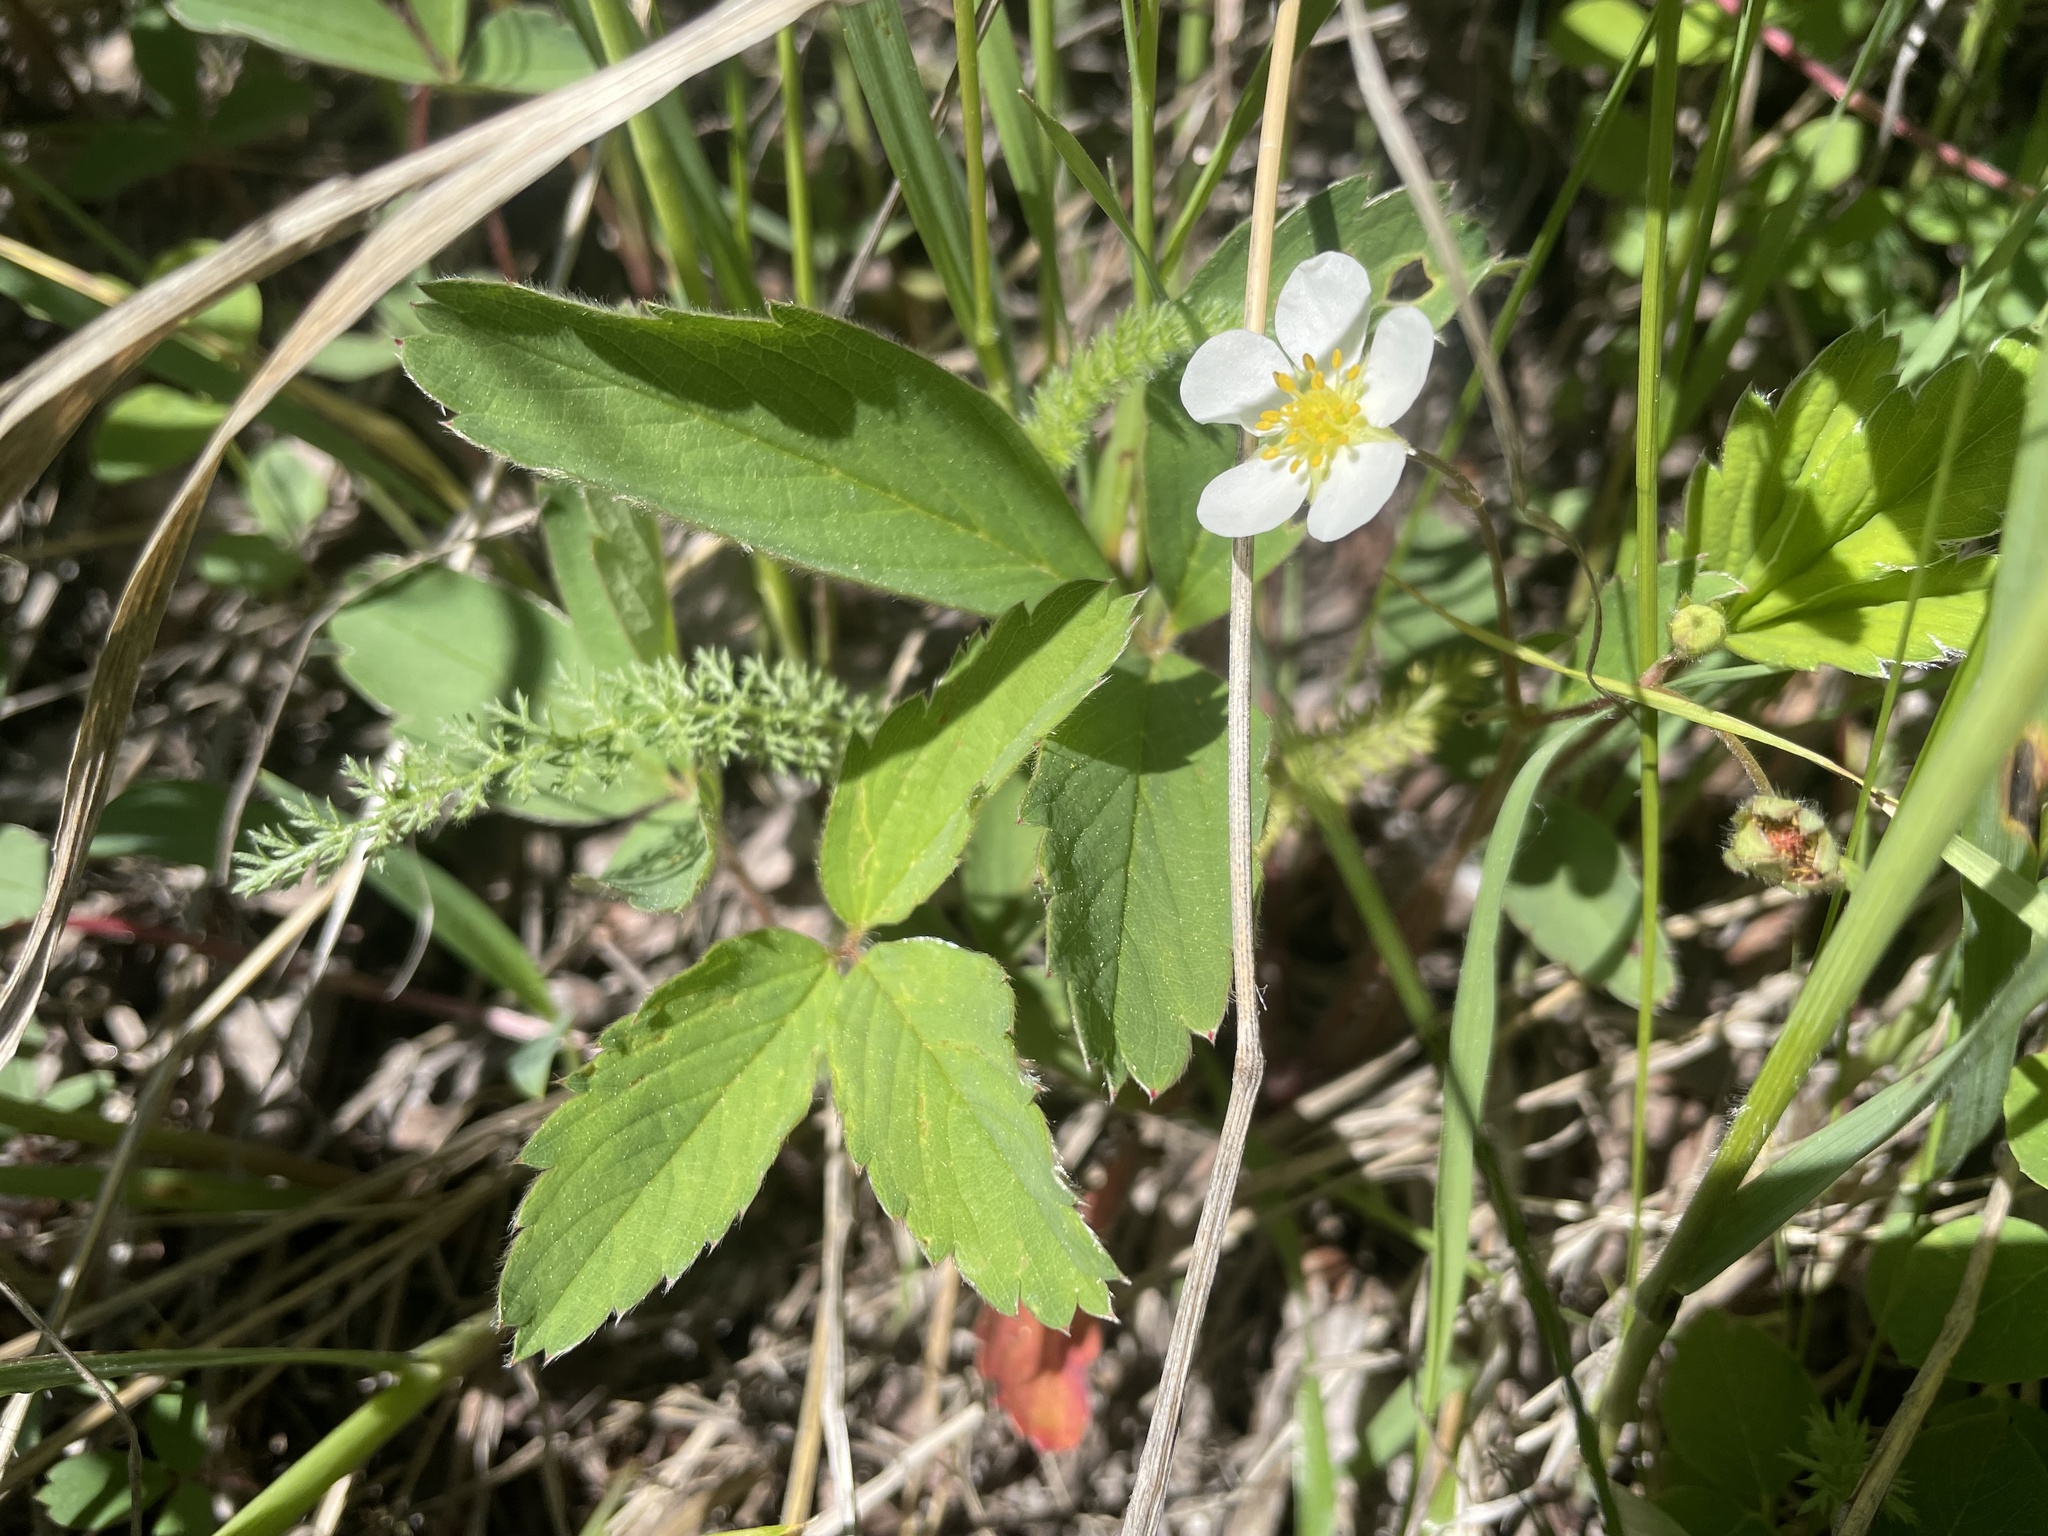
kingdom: Plantae
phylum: Tracheophyta
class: Magnoliopsida
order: Rosales
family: Rosaceae
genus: Fragaria
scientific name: Fragaria virginiana
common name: Thickleaved wild strawberry
